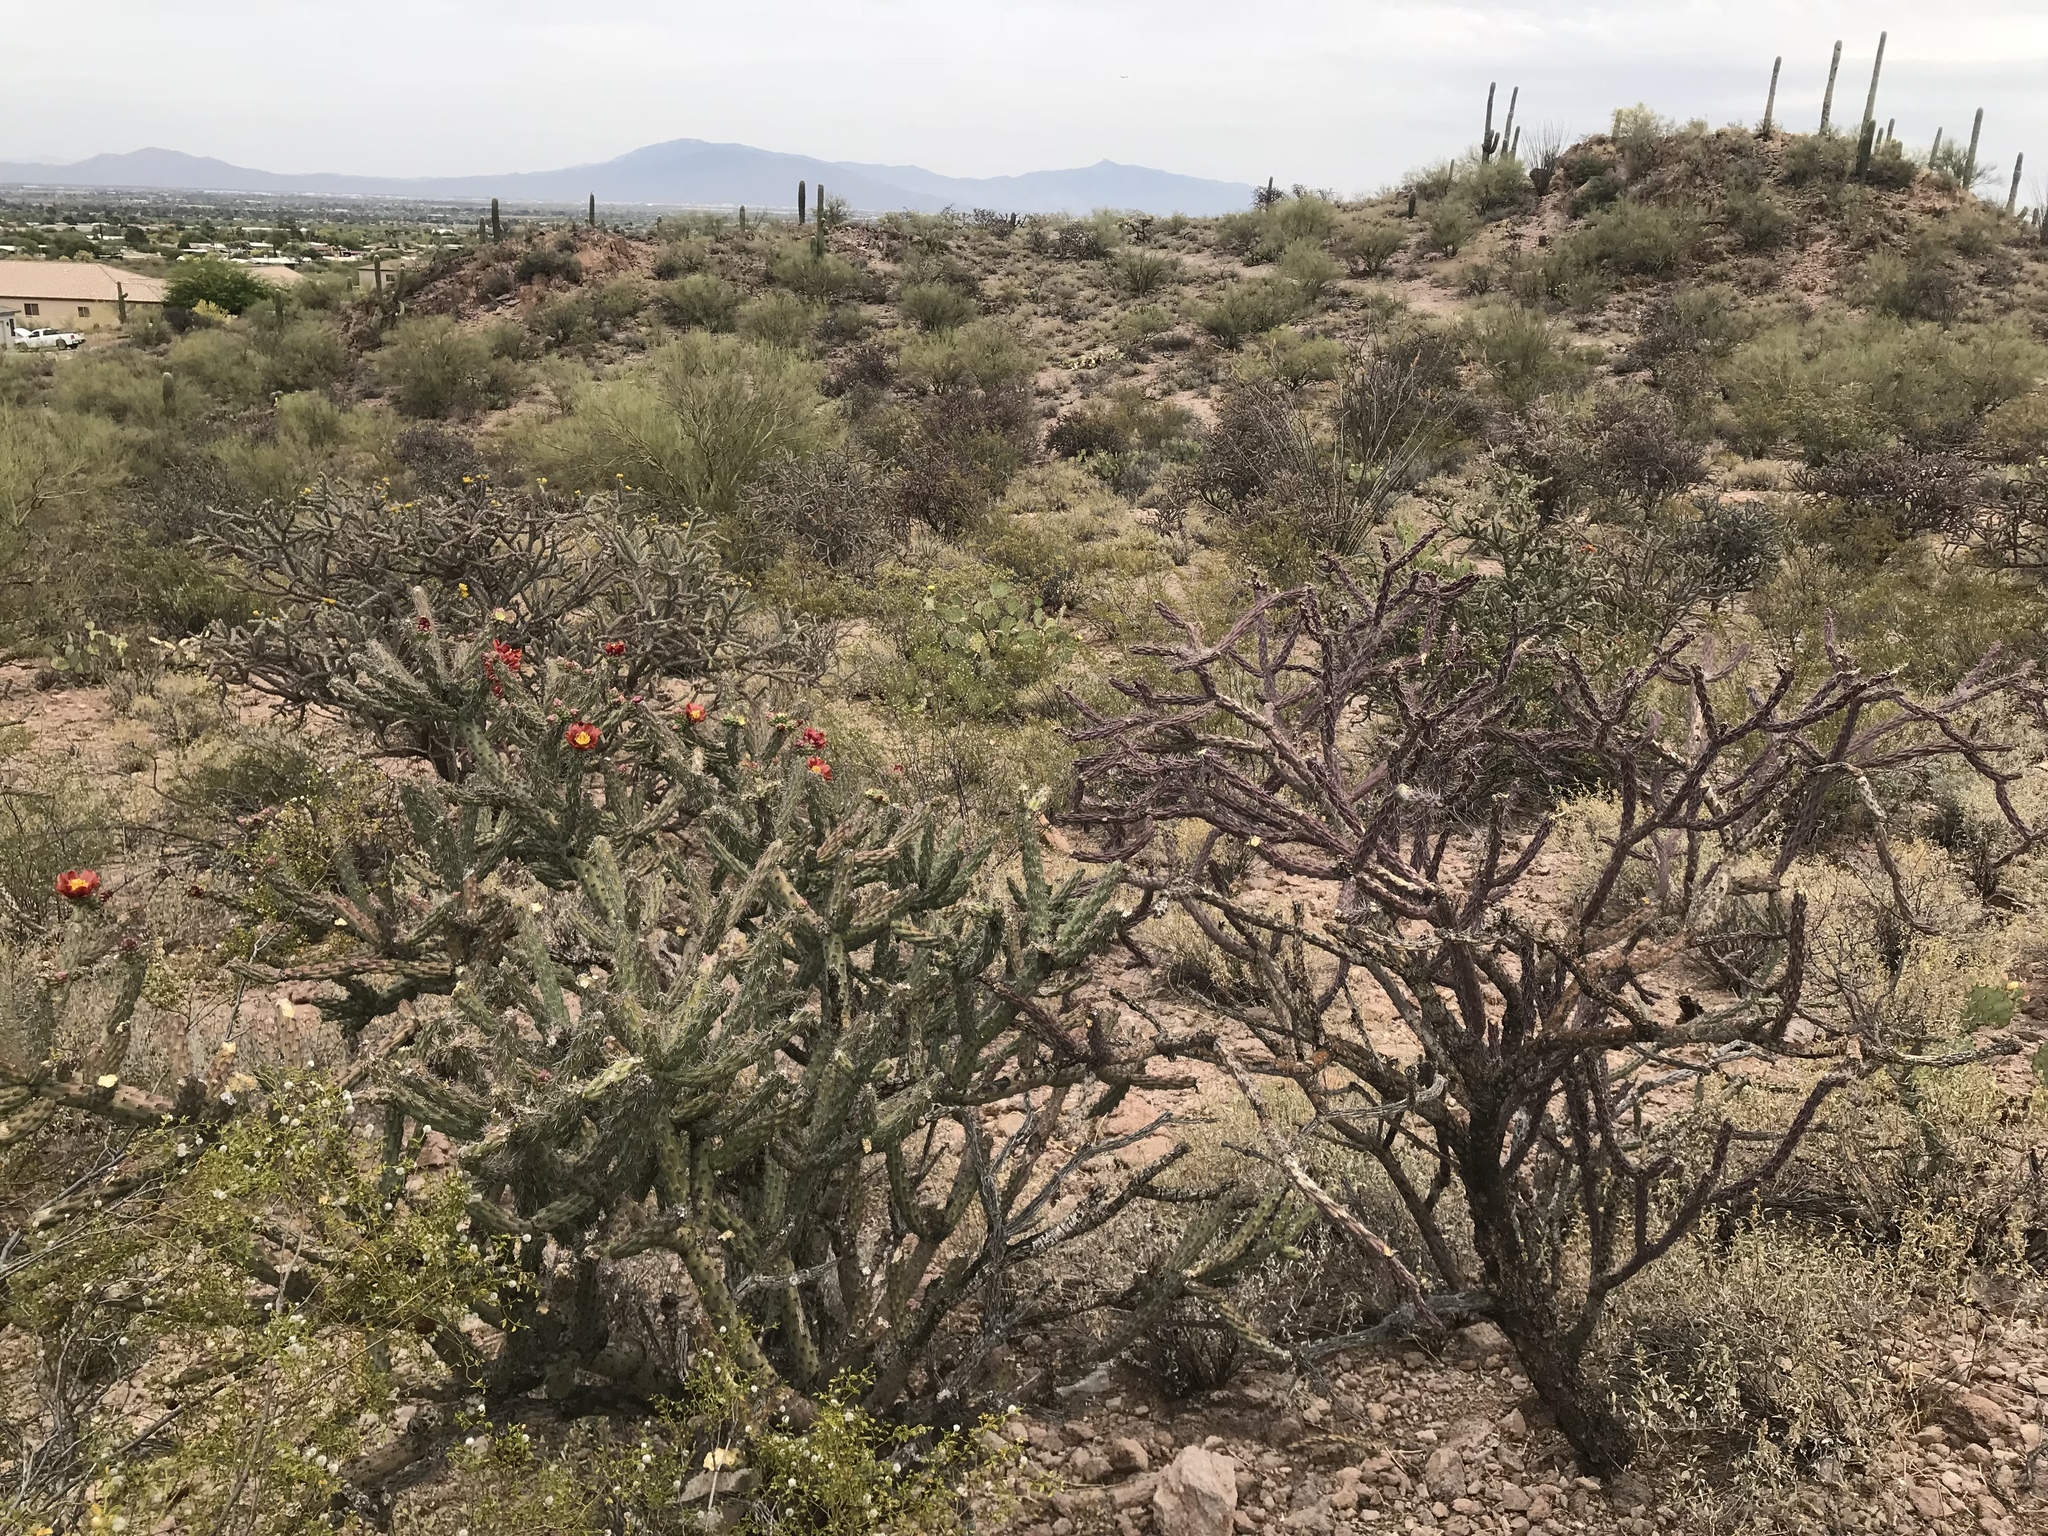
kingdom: Plantae
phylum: Tracheophyta
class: Magnoliopsida
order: Caryophyllales
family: Cactaceae
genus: Cylindropuntia
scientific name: Cylindropuntia thurberi
